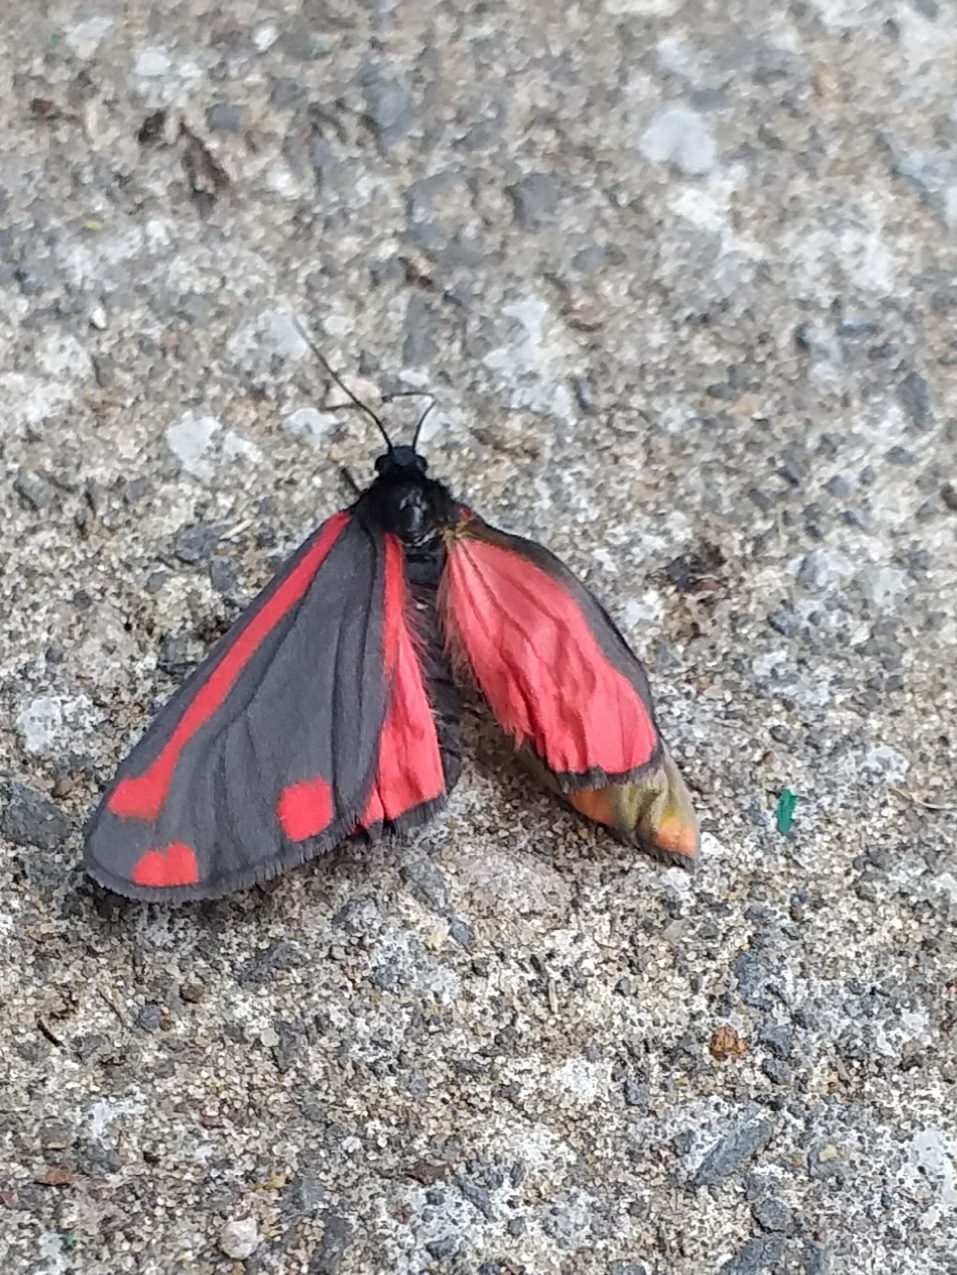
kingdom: Animalia
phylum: Arthropoda
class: Insecta
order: Lepidoptera
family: Erebidae
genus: Tyria
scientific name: Tyria jacobaeae
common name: Cinnabar
